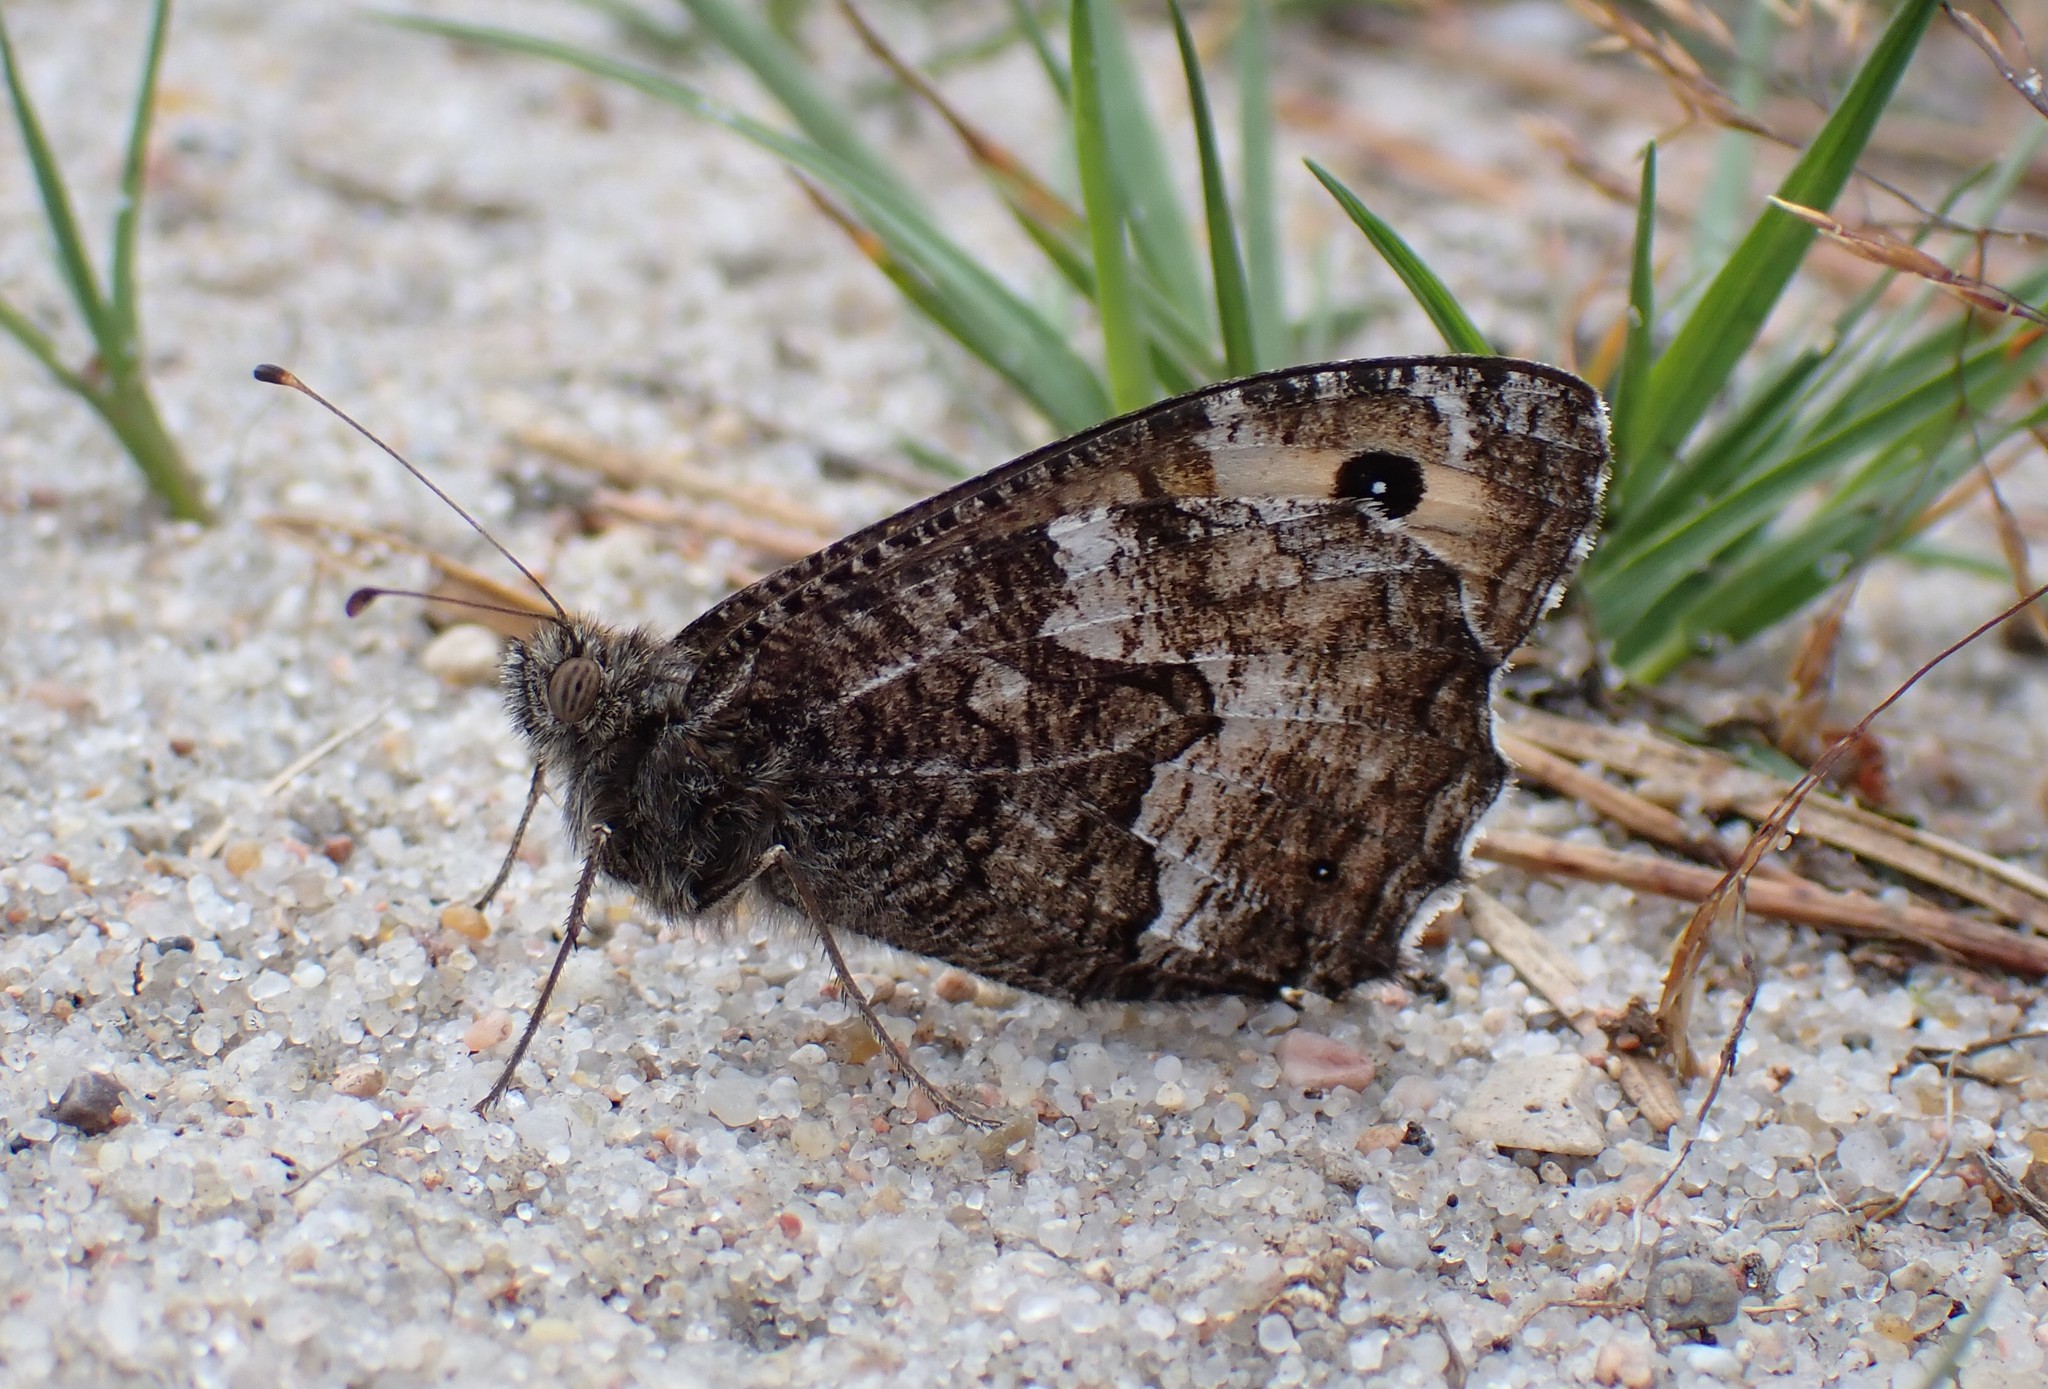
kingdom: Animalia
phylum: Arthropoda
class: Insecta
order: Lepidoptera
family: Nymphalidae
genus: Hipparchia
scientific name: Hipparchia semele
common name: Grayling
